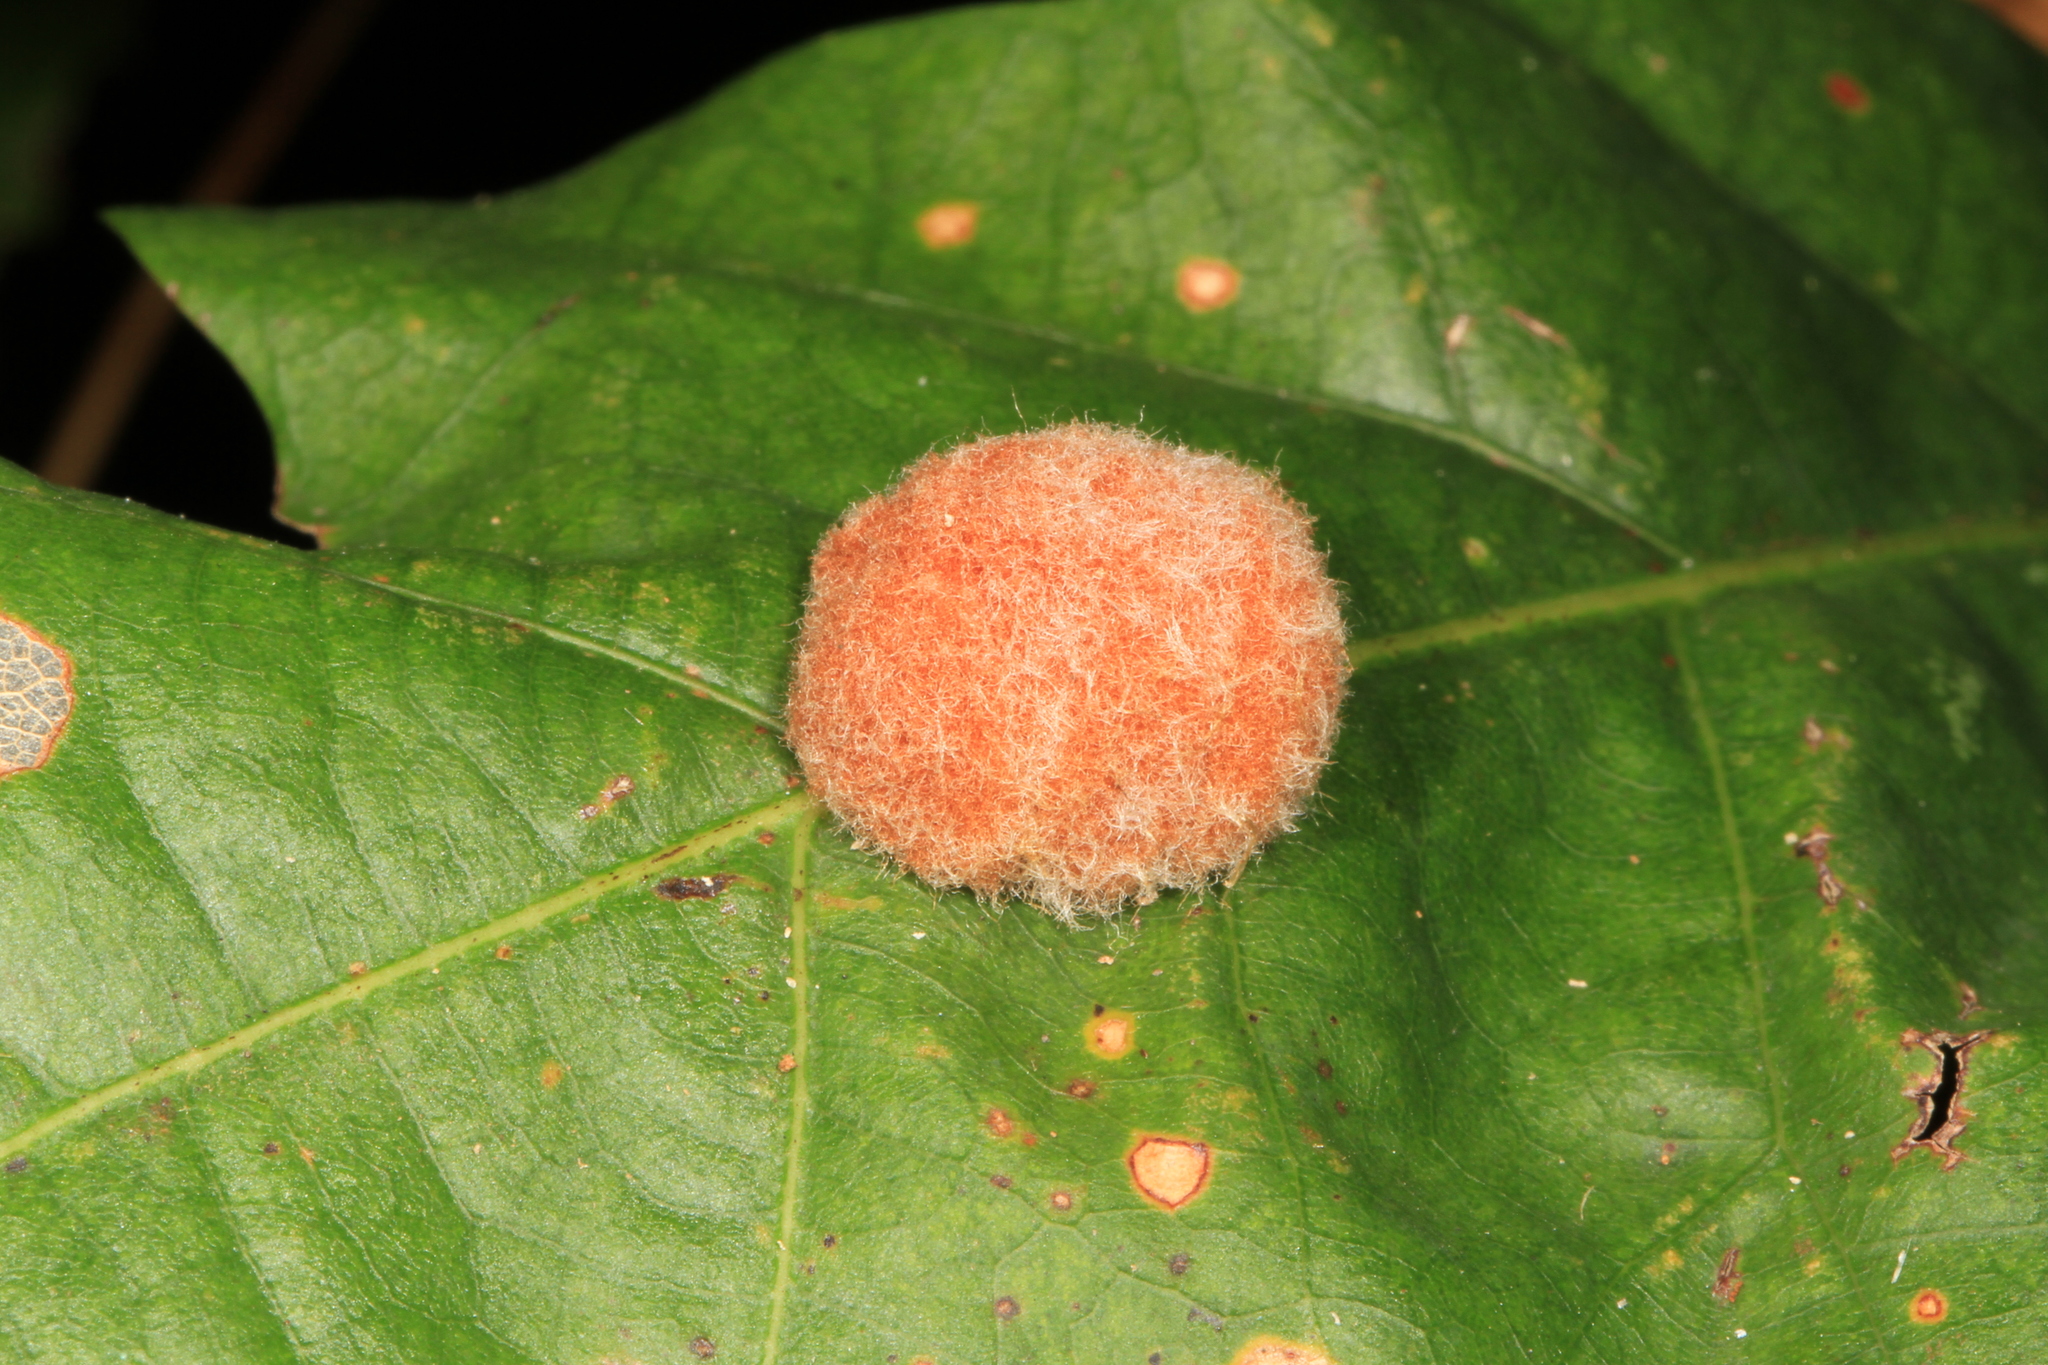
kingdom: Animalia
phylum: Arthropoda
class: Insecta
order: Hymenoptera
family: Cynipidae
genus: Andricus
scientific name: Andricus quercusflocci
